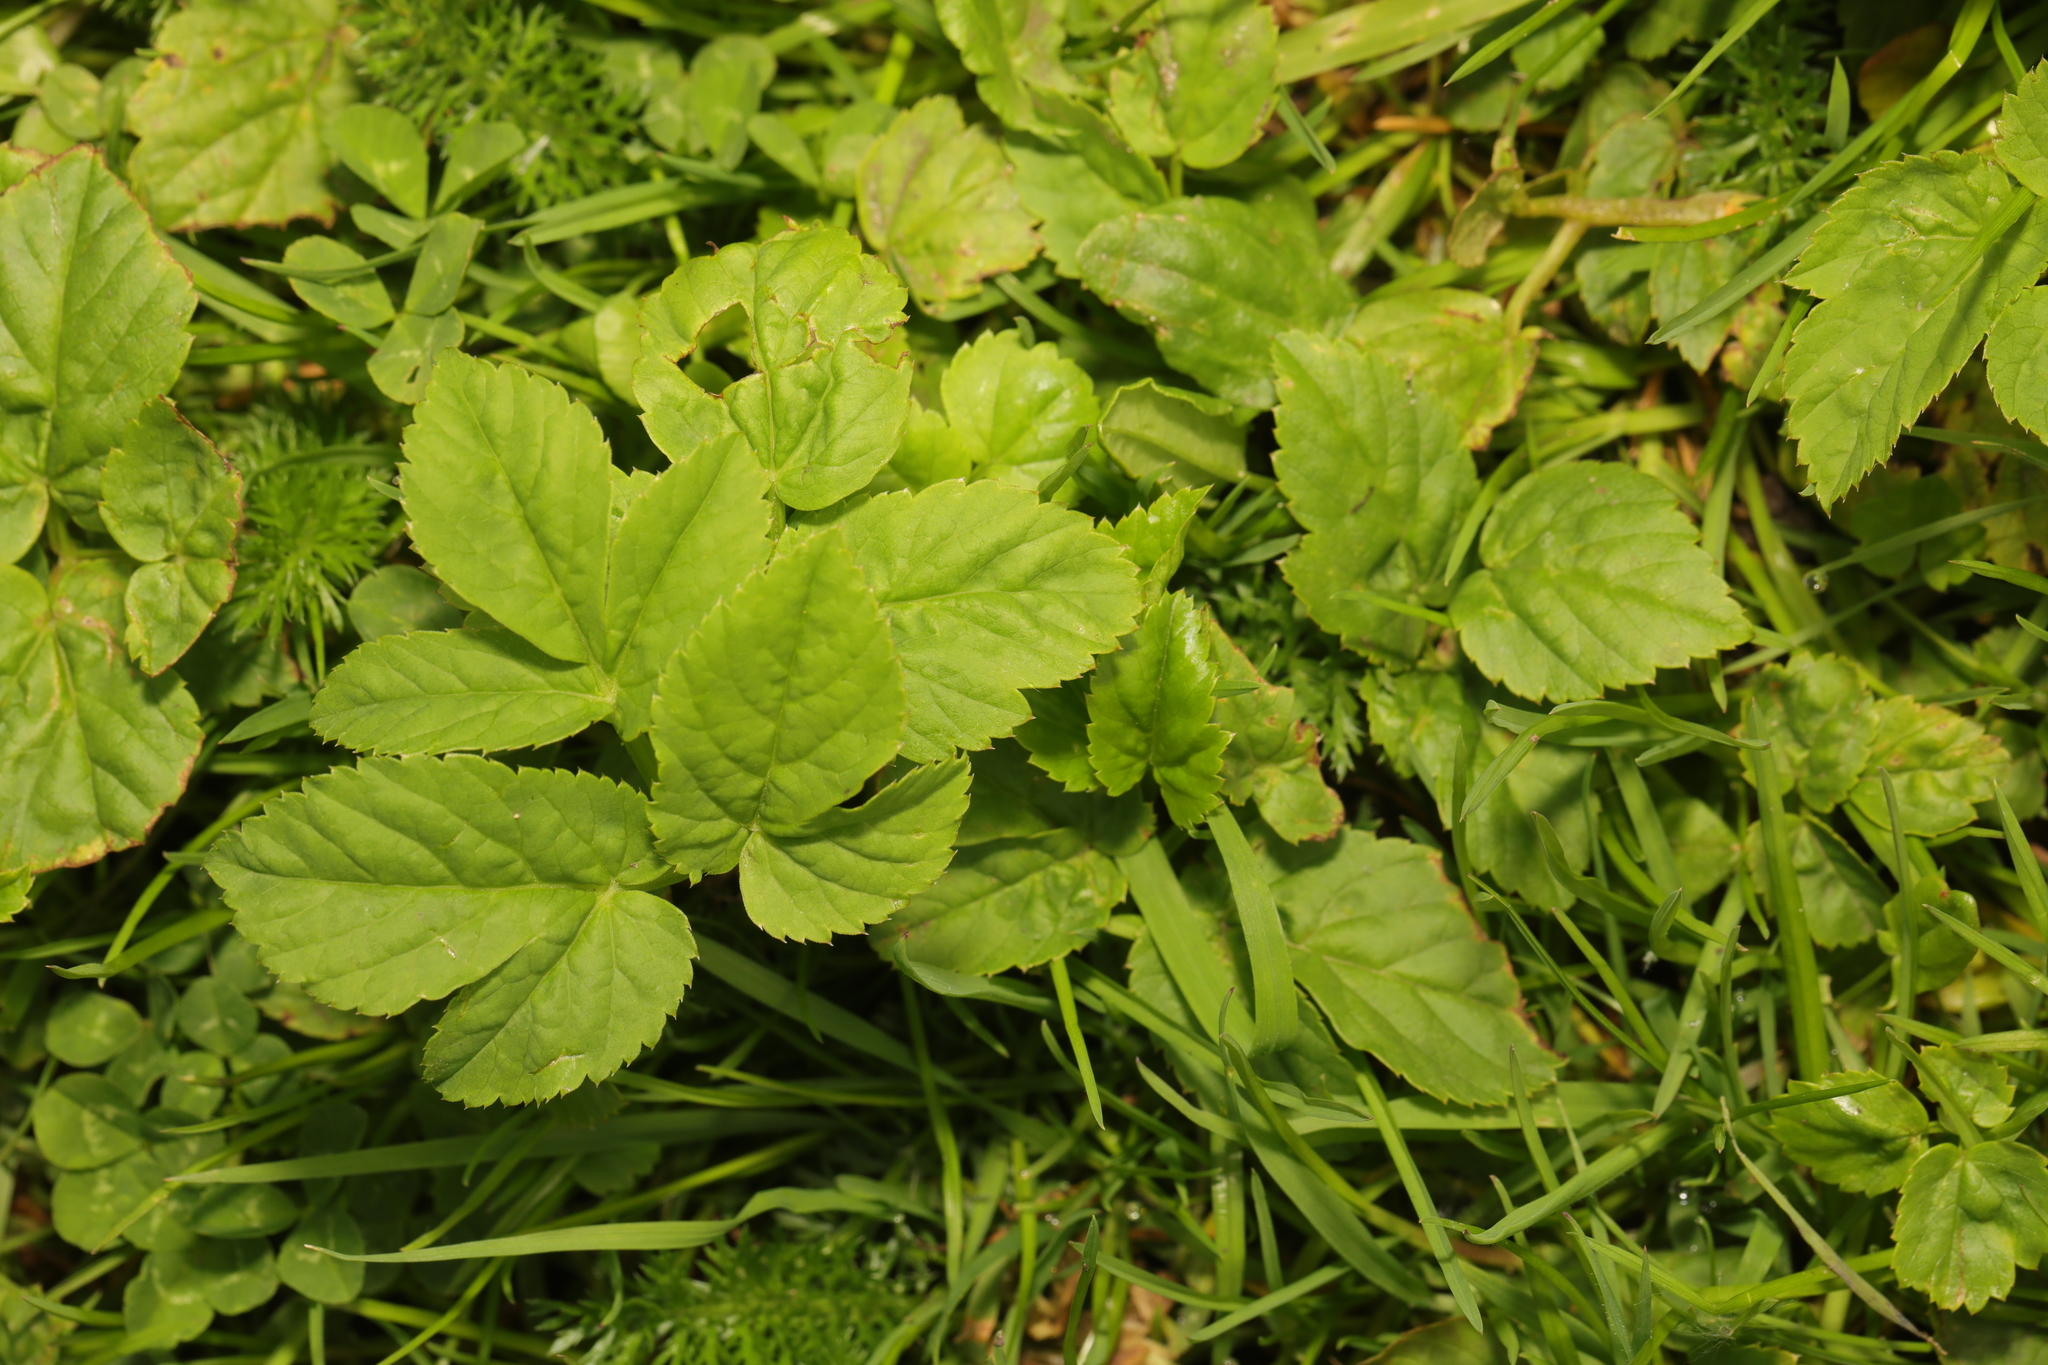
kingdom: Plantae
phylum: Tracheophyta
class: Magnoliopsida
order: Apiales
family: Apiaceae
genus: Aegopodium
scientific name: Aegopodium podagraria
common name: Ground-elder
